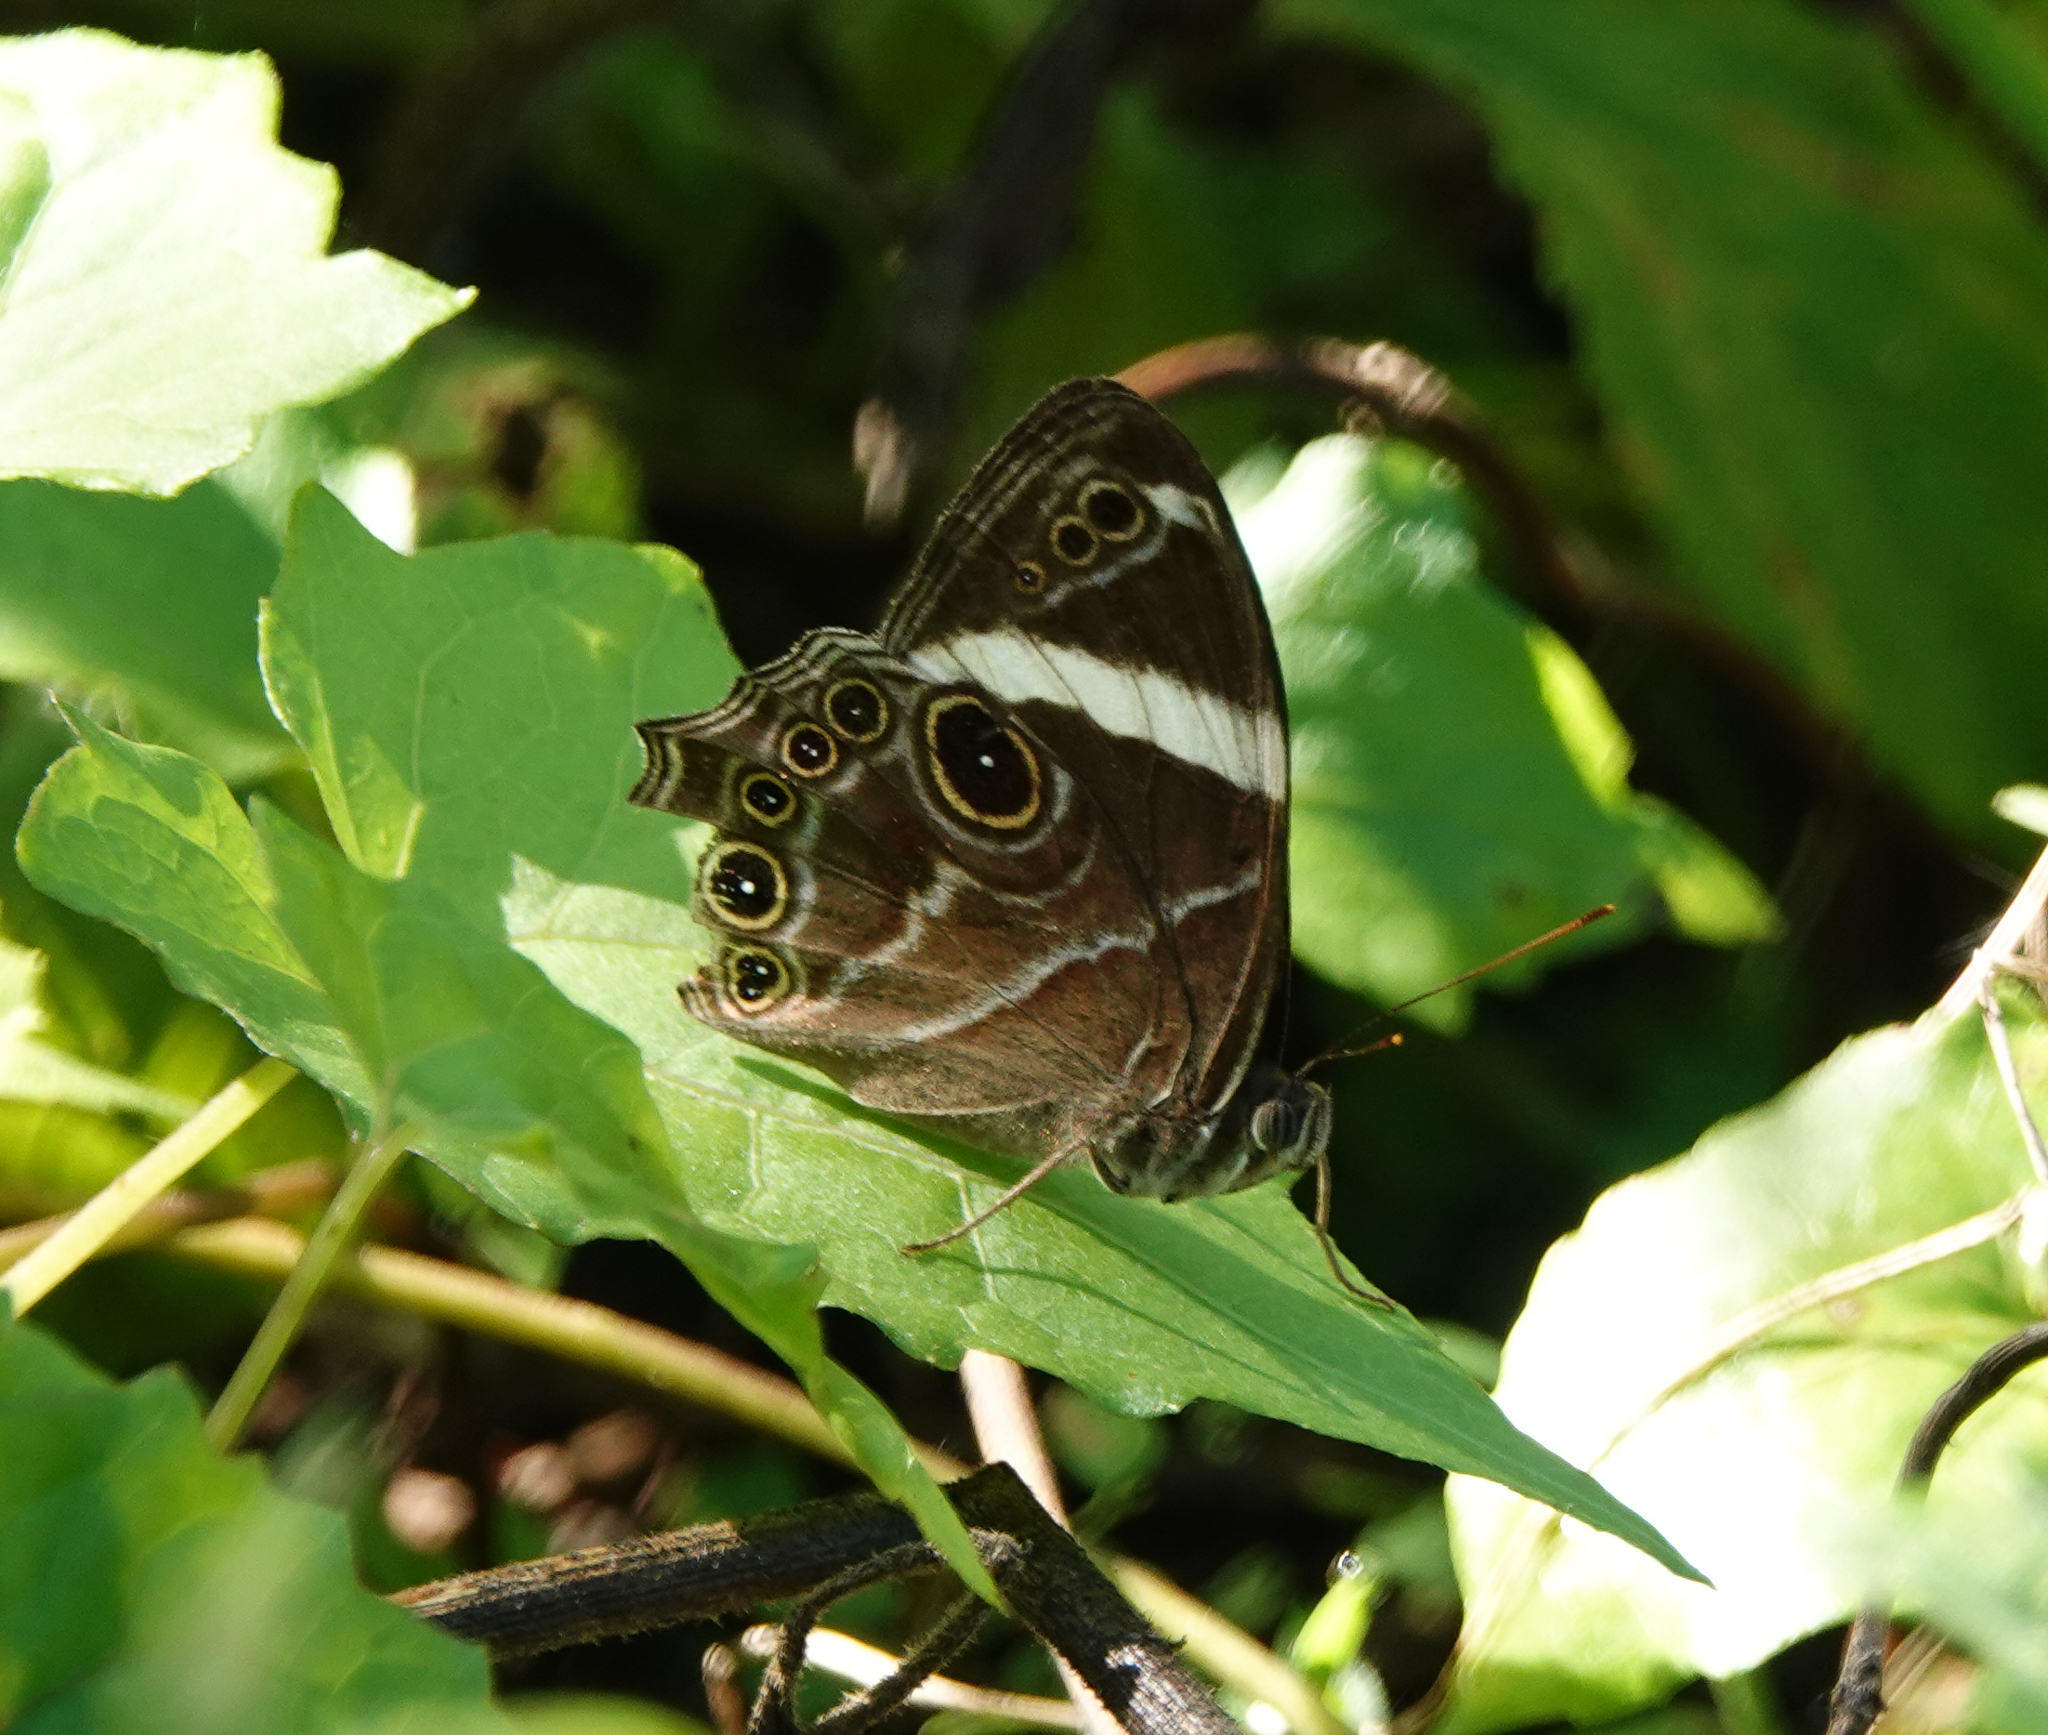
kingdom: Animalia
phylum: Arthropoda
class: Insecta
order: Lepidoptera
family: Nymphalidae
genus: Lethe
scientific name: Lethe confusa
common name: Banded treebrown
